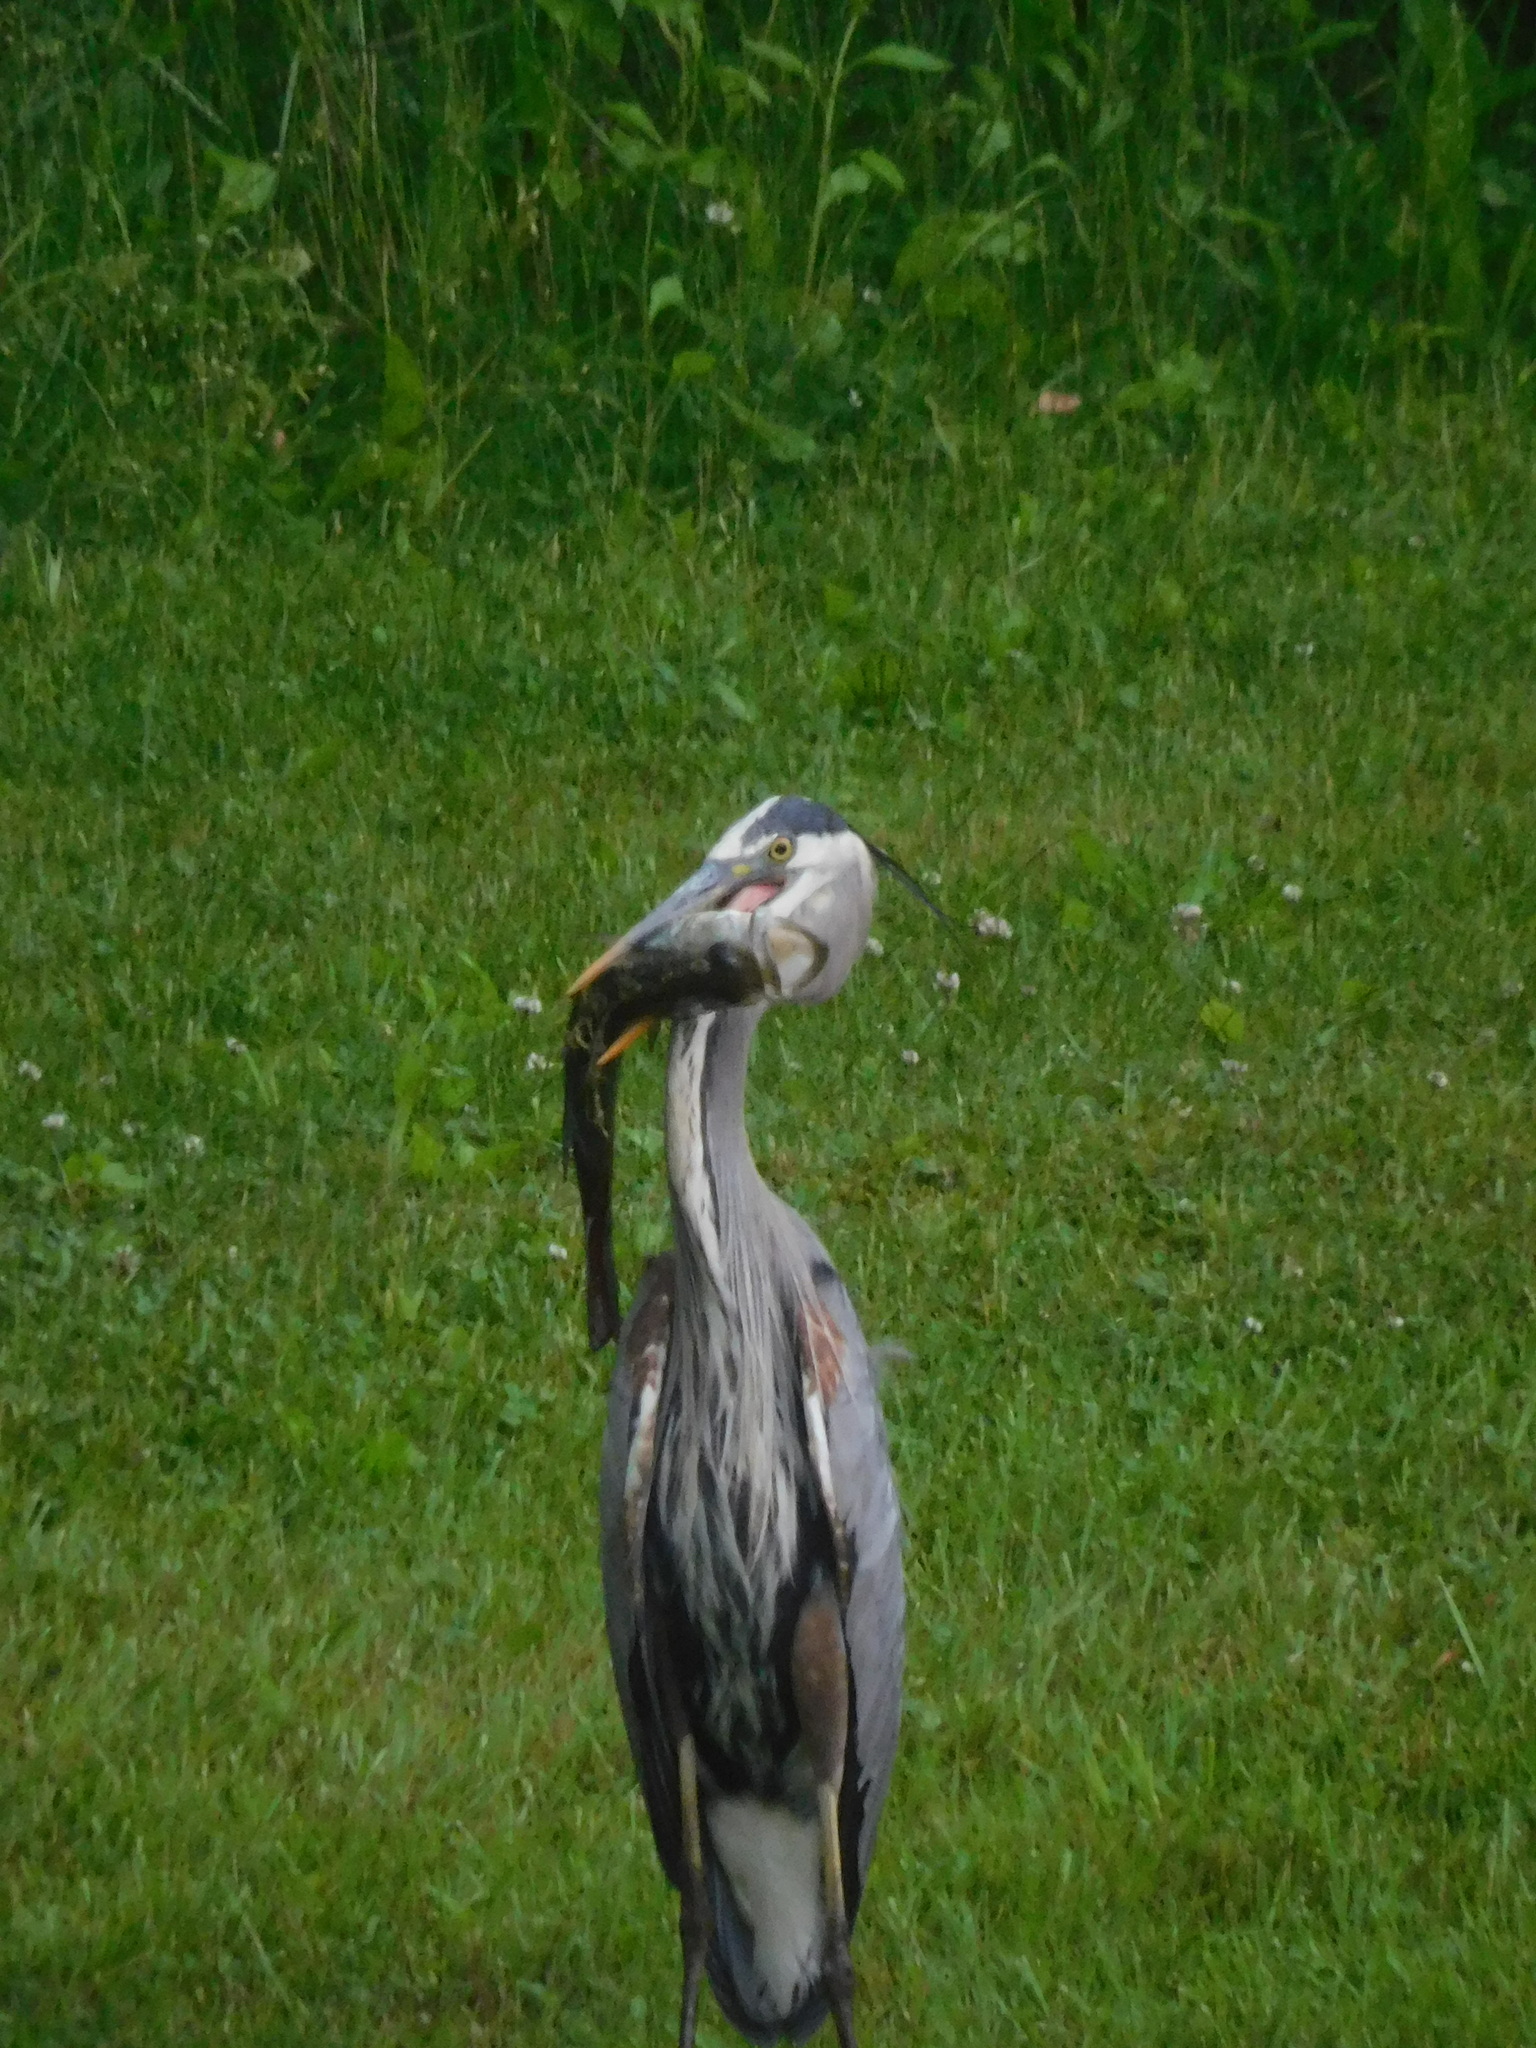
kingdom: Animalia
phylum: Chordata
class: Aves
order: Pelecaniformes
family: Ardeidae
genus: Ardea
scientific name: Ardea herodias
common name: Great blue heron
